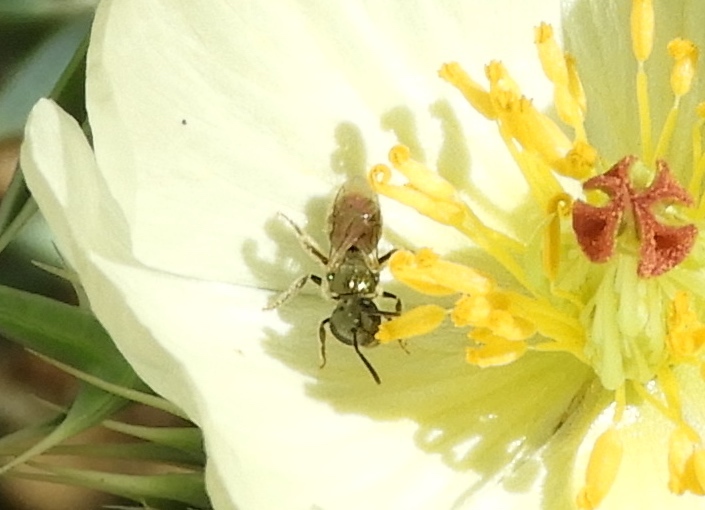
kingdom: Animalia
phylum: Arthropoda
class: Insecta
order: Hymenoptera
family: Halictidae
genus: Dialictus
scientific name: Dialictus
